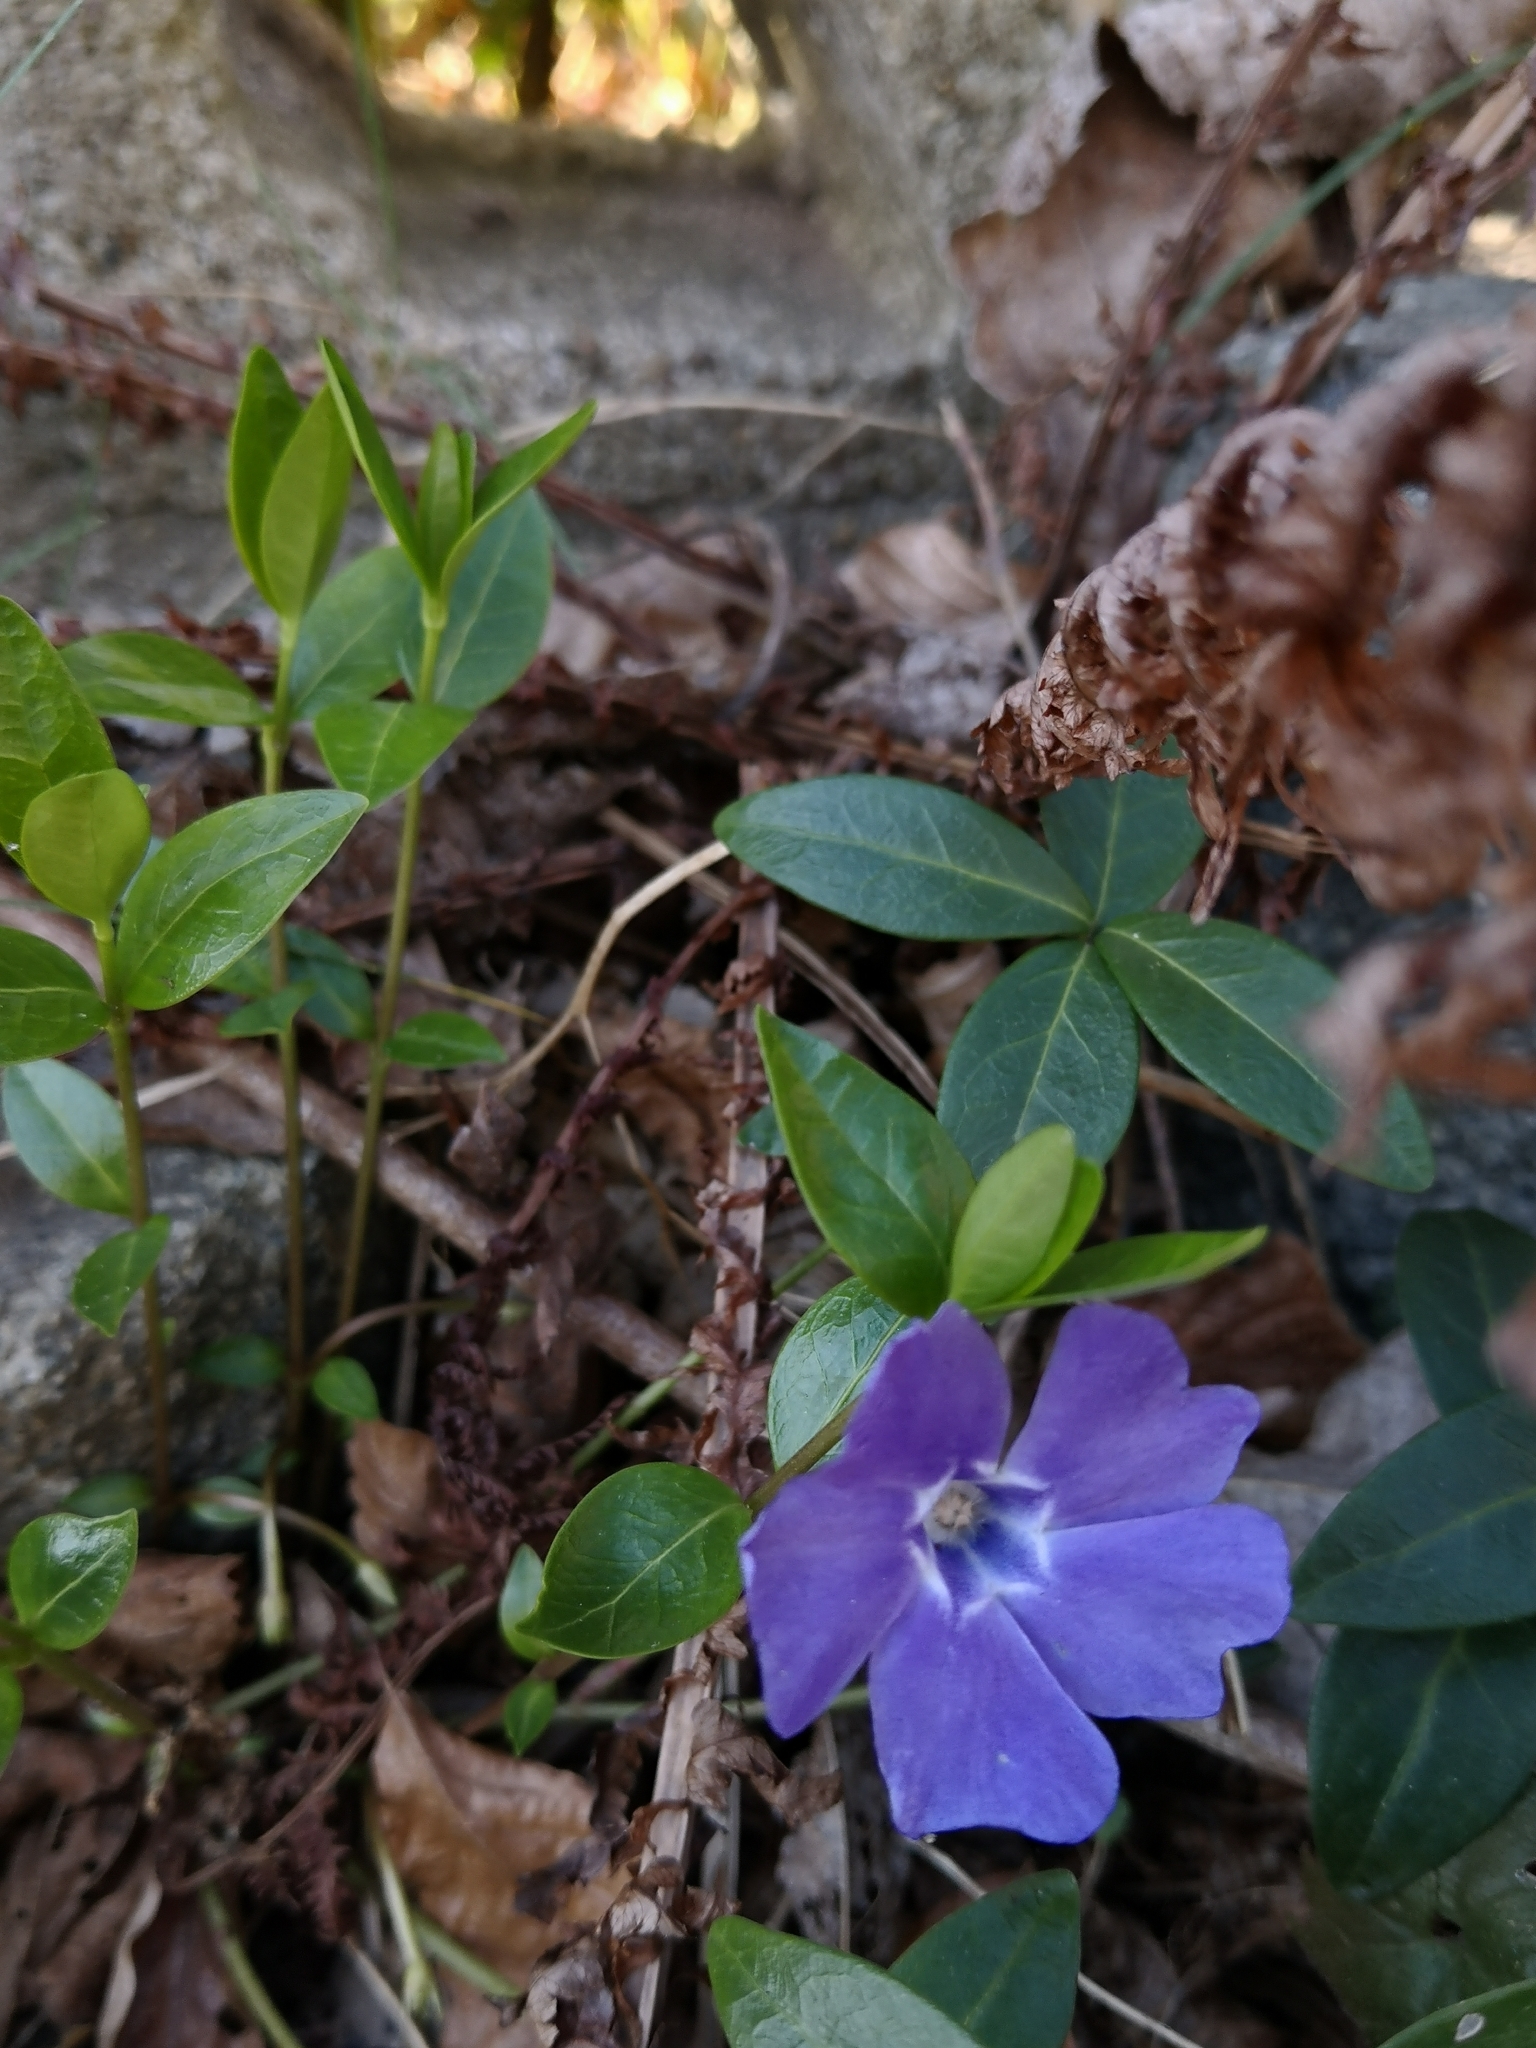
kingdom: Plantae
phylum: Tracheophyta
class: Magnoliopsida
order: Gentianales
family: Apocynaceae
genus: Vinca
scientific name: Vinca minor
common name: Lesser periwinkle
